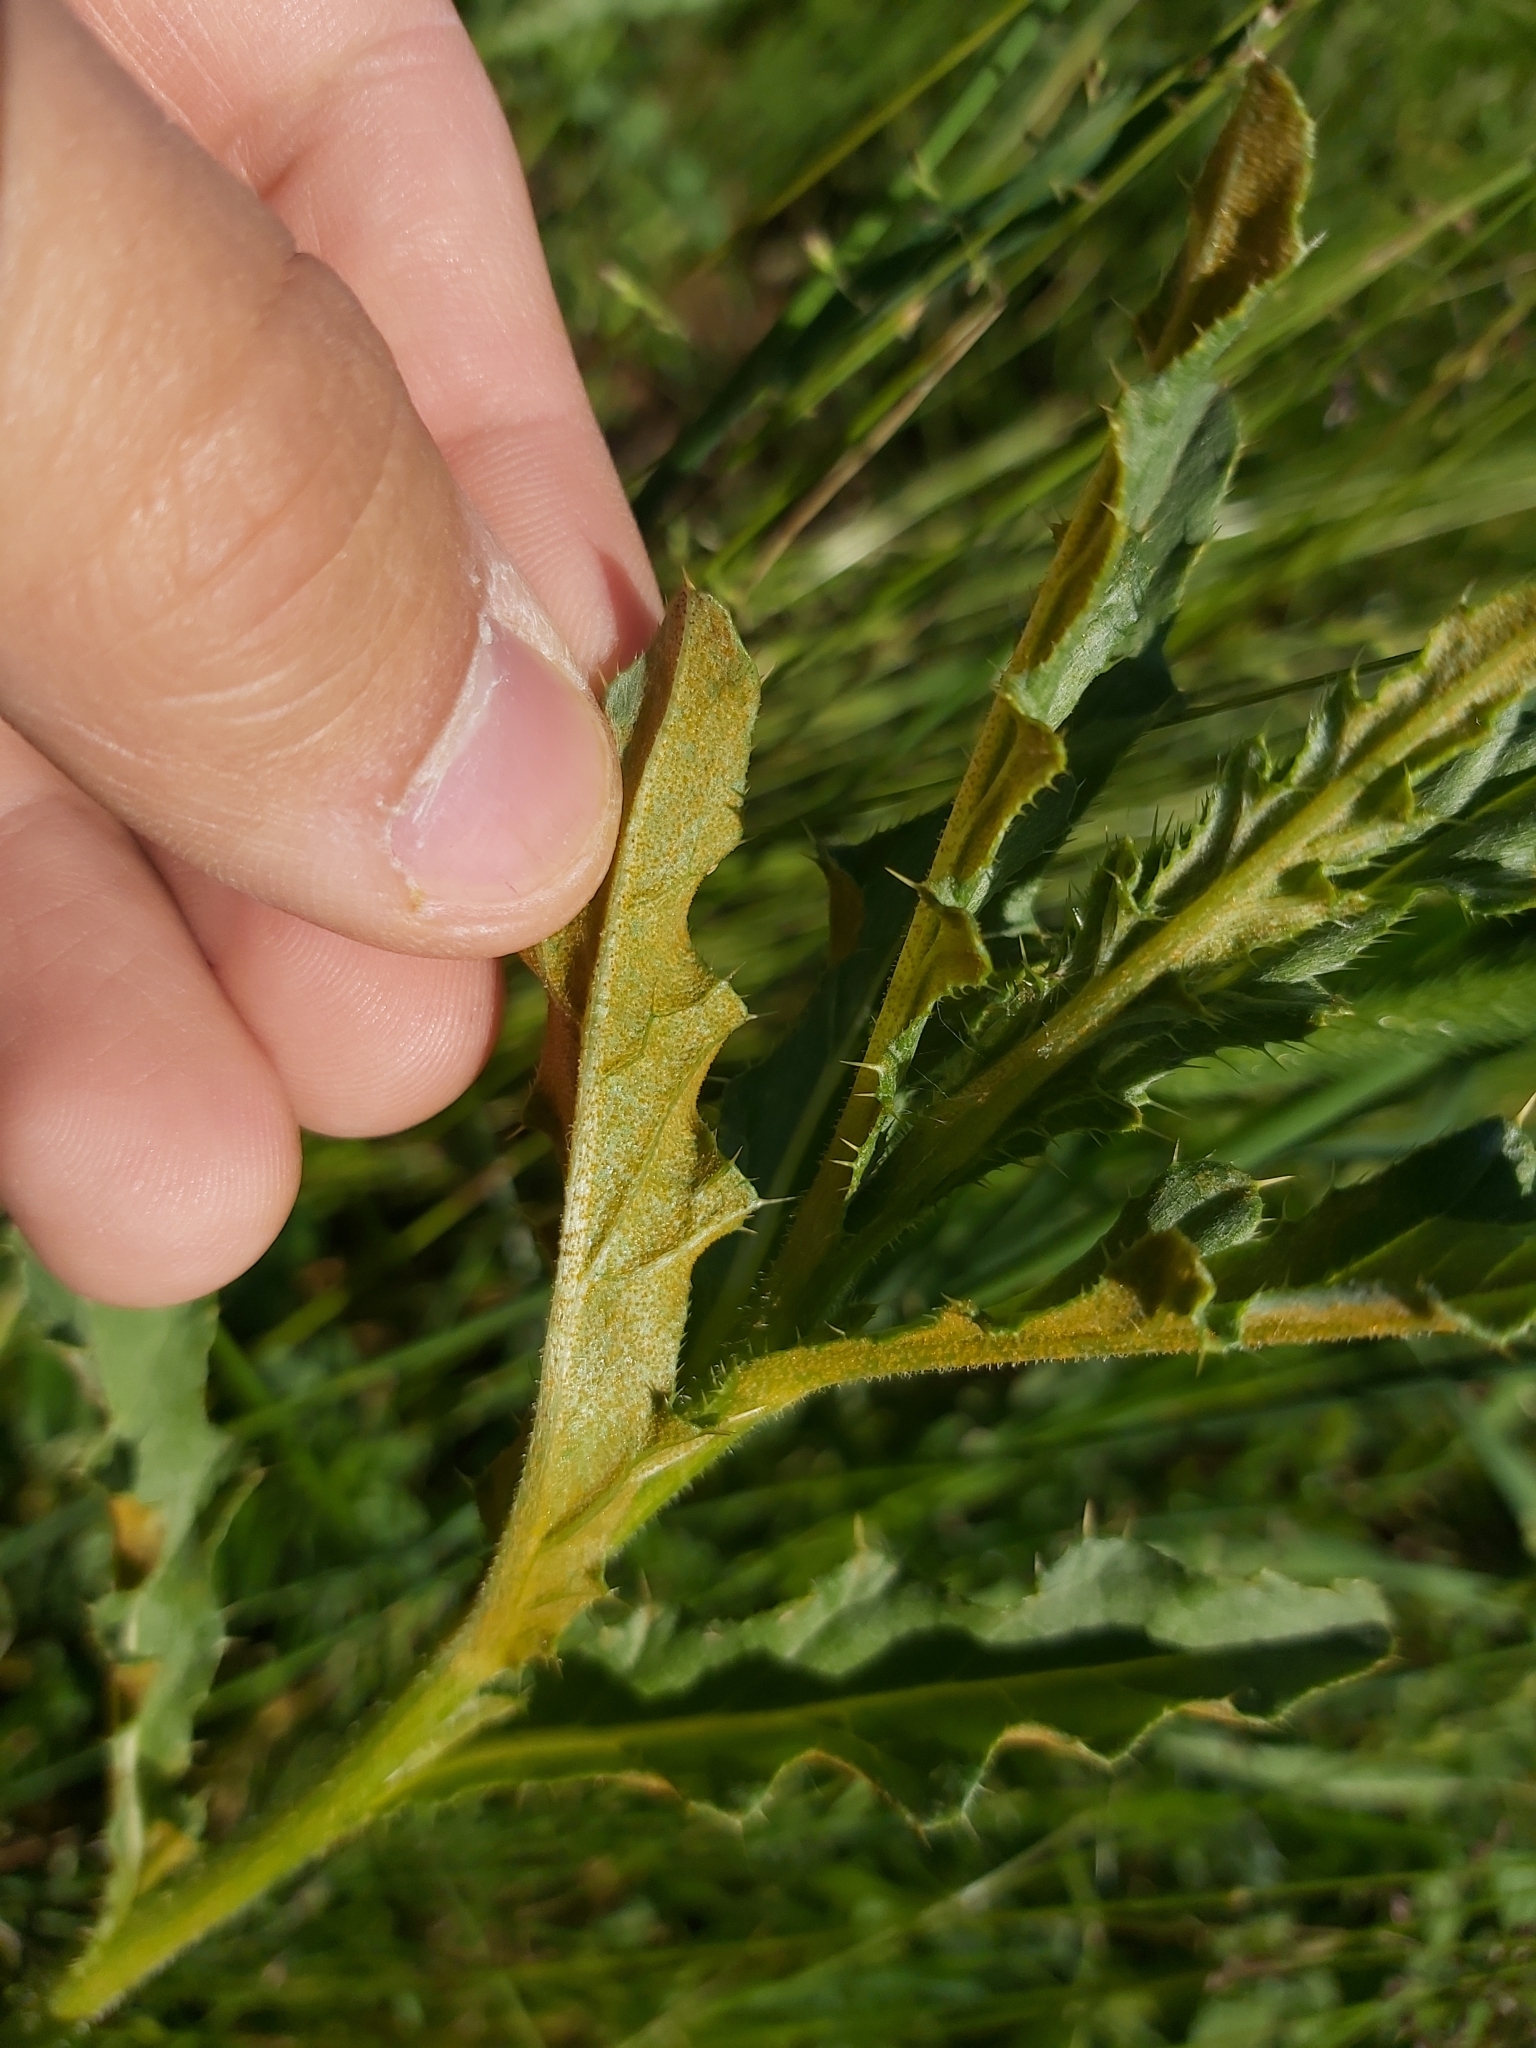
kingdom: Fungi
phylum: Basidiomycota
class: Pucciniomycetes
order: Pucciniales
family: Pucciniaceae
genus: Puccinia
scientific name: Puccinia suaveolens
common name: Thistle rust
